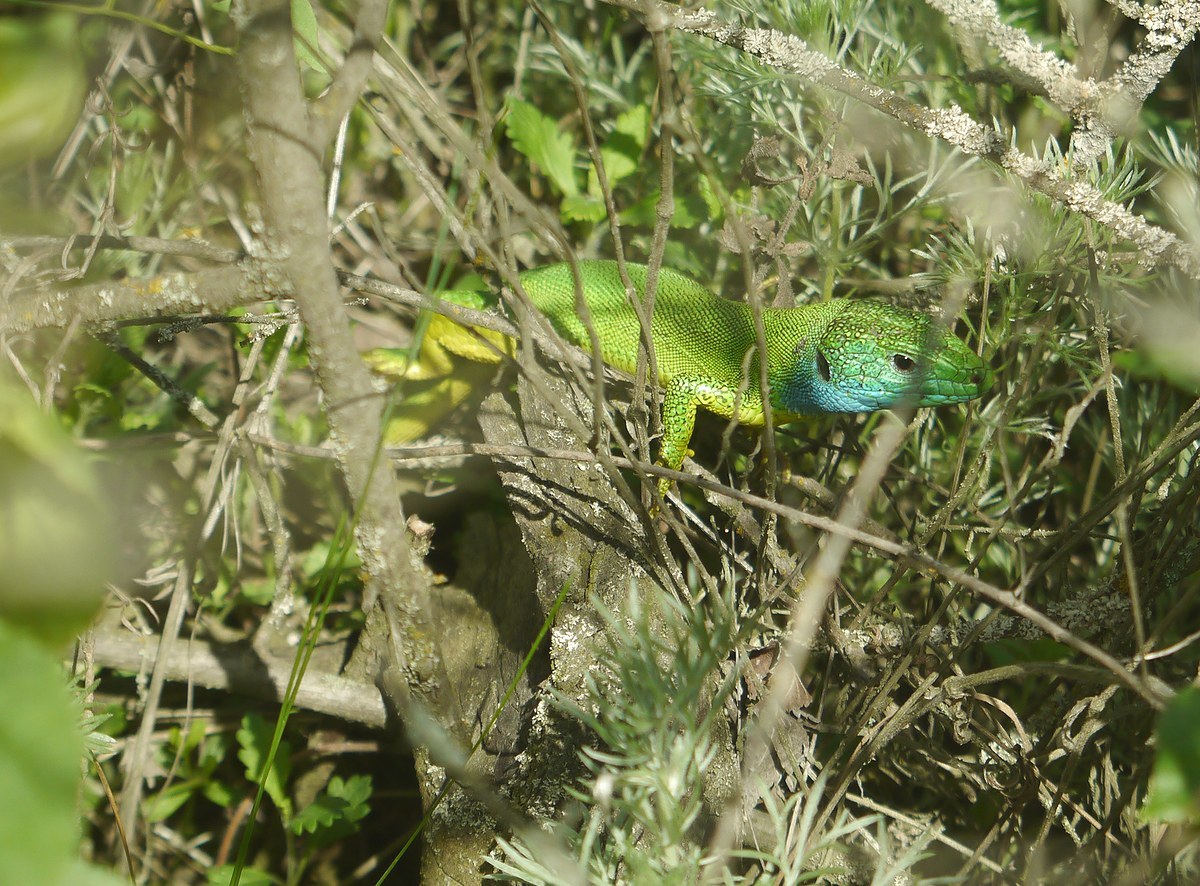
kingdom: Animalia
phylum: Chordata
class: Squamata
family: Lacertidae
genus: Lacerta
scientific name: Lacerta viridis
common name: European green lizard
